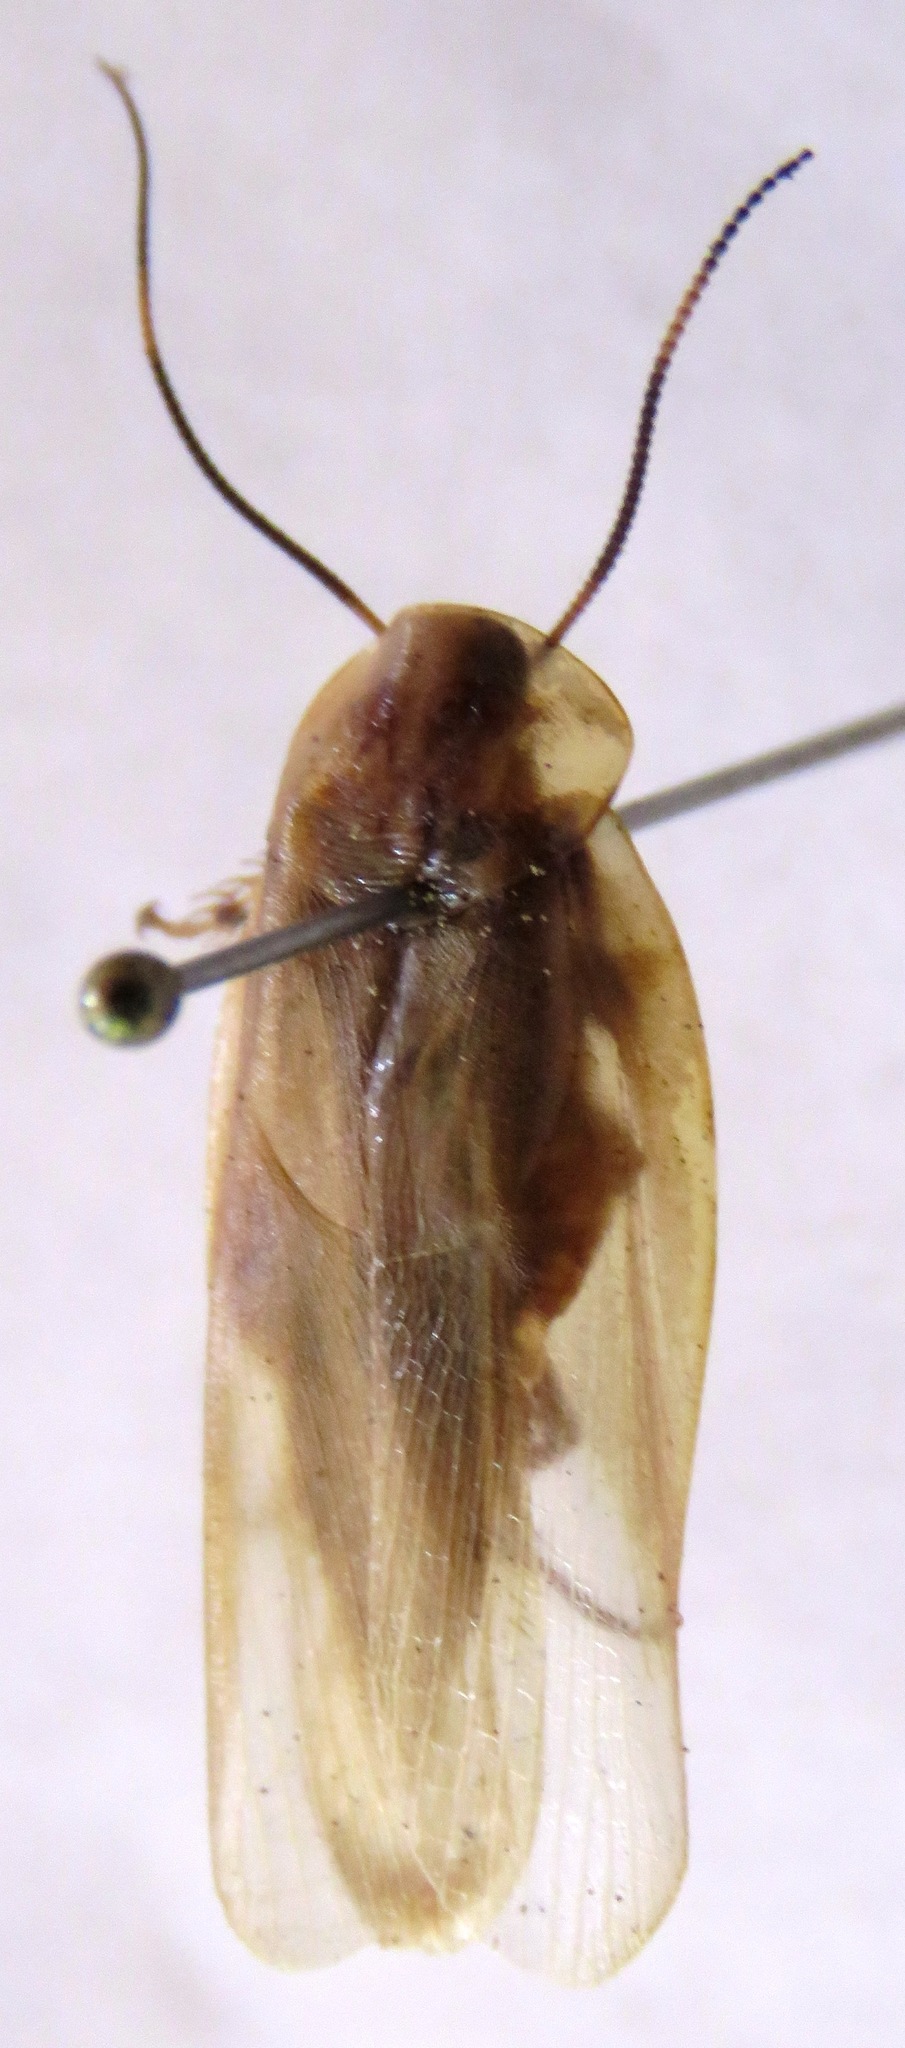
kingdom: Animalia
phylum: Arthropoda
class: Insecta
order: Blattodea
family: Blaberidae
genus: Achroblatta
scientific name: Achroblatta luteola
